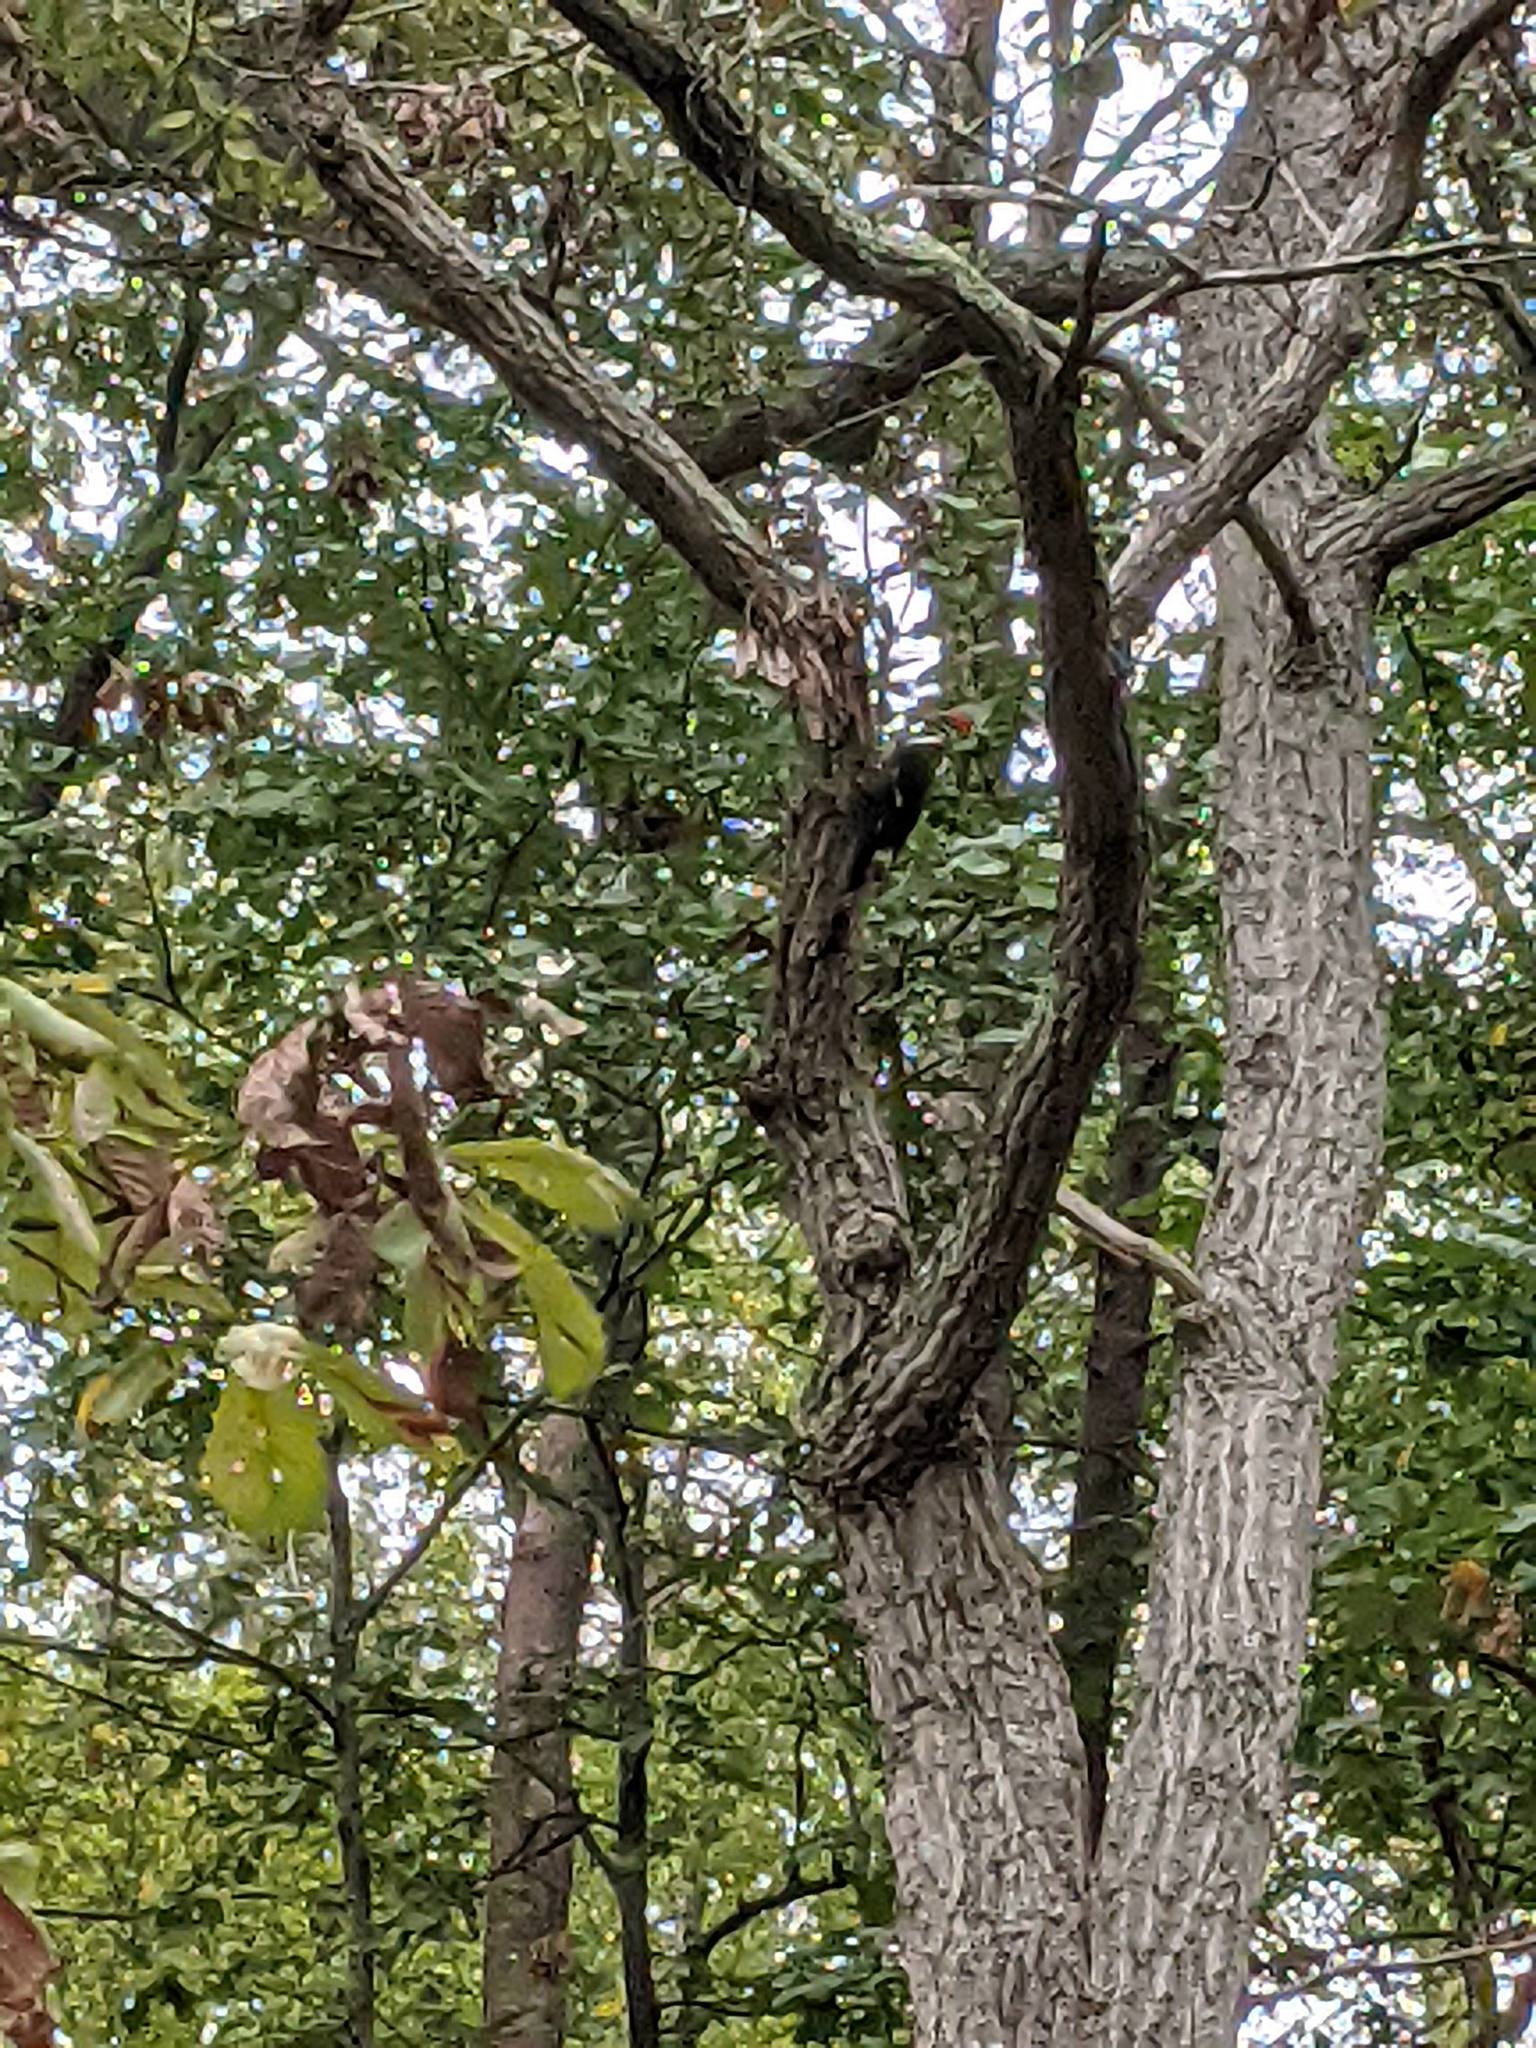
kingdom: Animalia
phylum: Chordata
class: Aves
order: Piciformes
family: Picidae
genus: Dryocopus
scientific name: Dryocopus pileatus
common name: Pileated woodpecker
